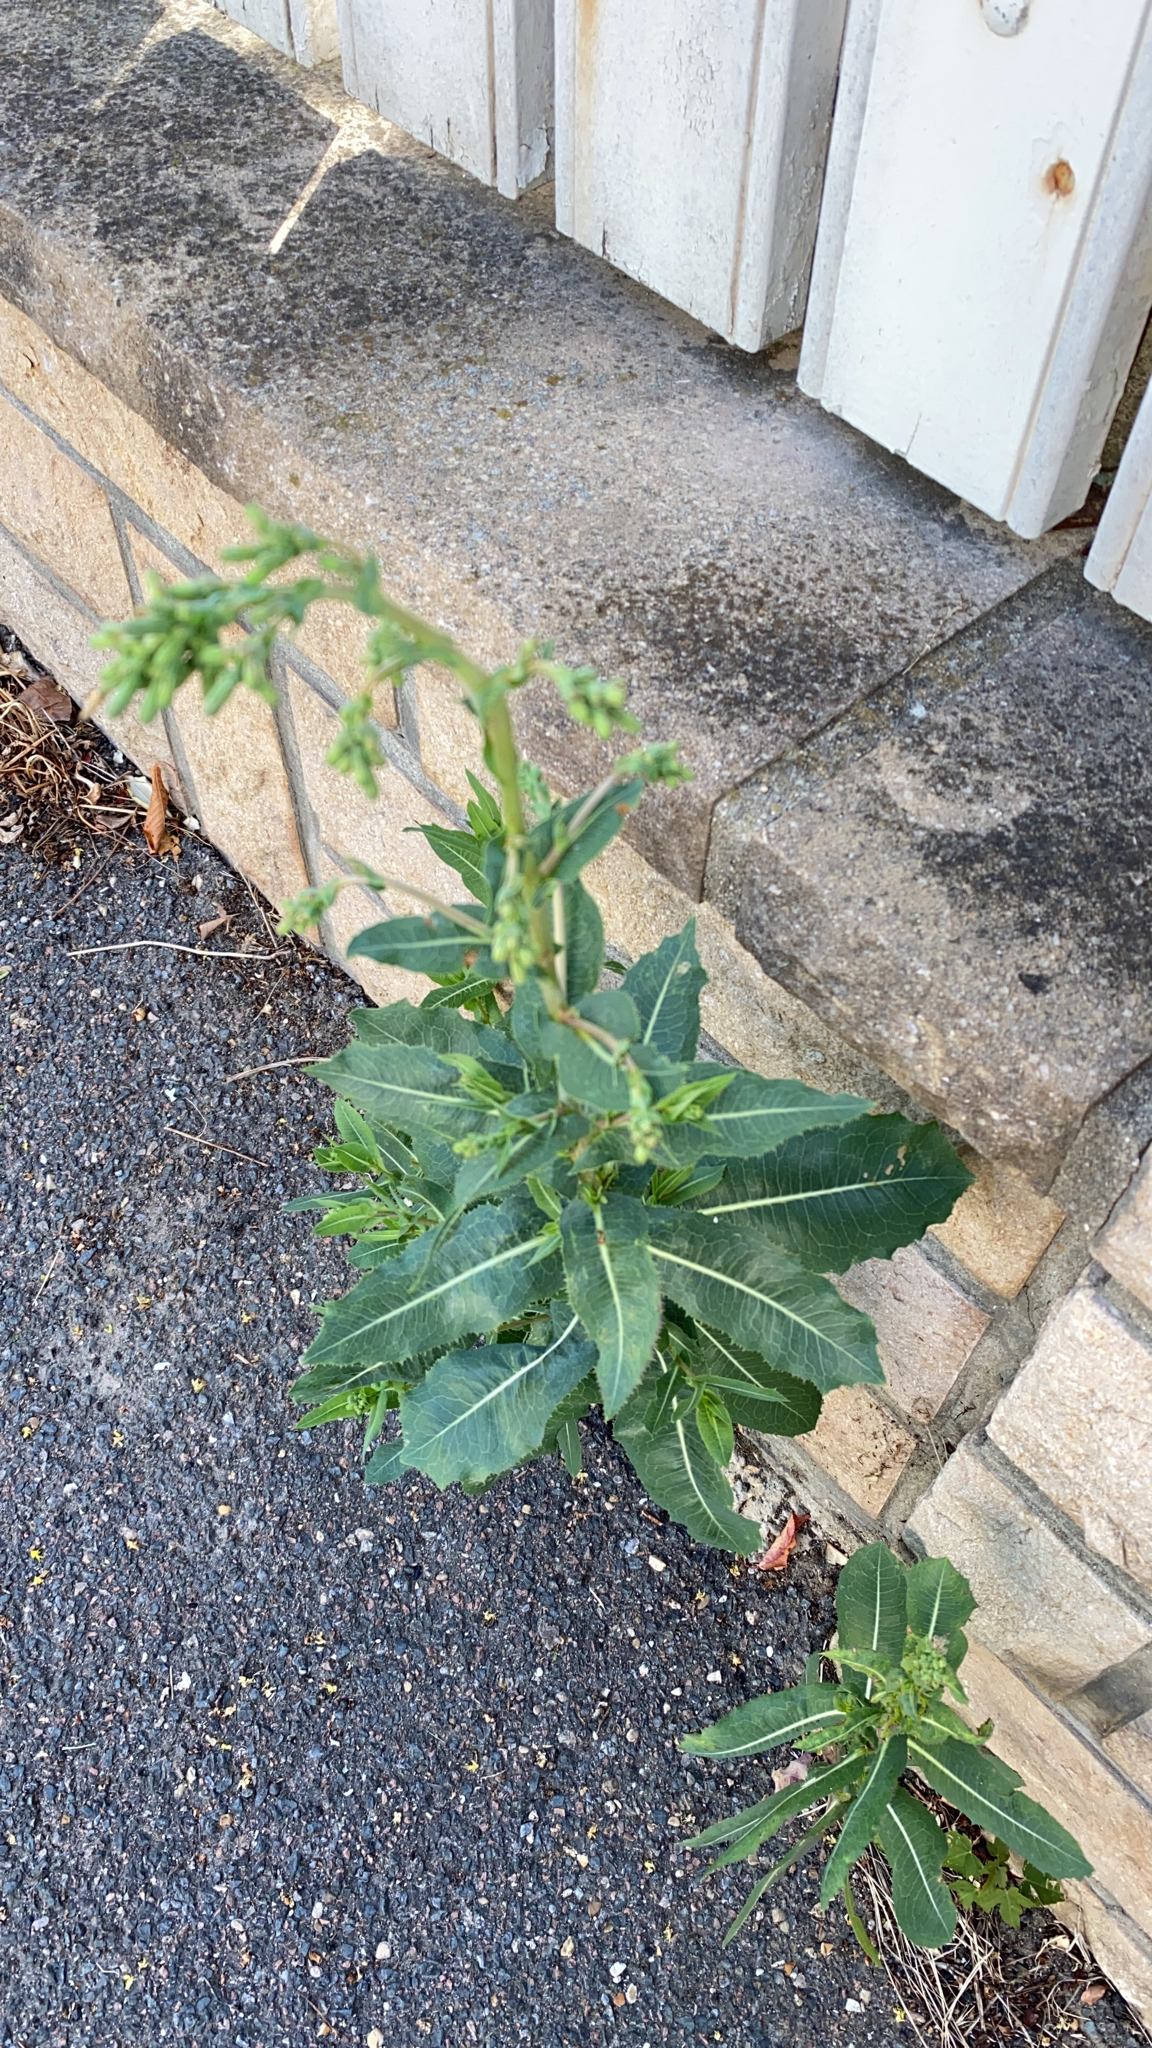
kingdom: Plantae
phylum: Tracheophyta
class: Magnoliopsida
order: Asterales
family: Asteraceae
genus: Lactuca
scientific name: Lactuca serriola
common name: Prickly lettuce
